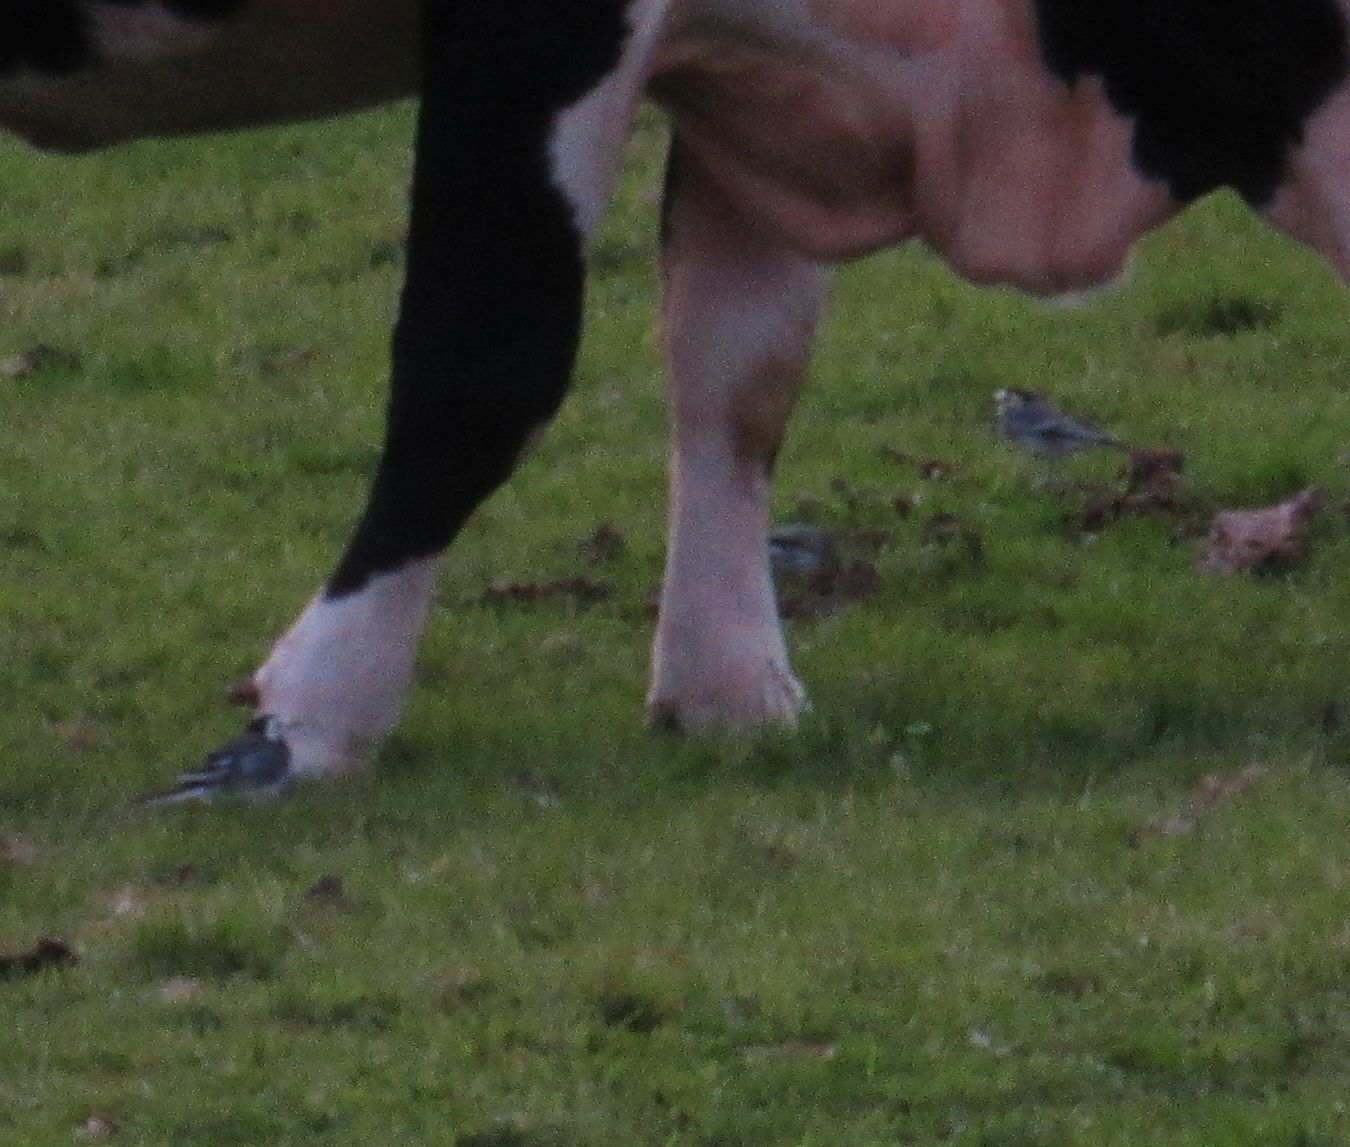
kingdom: Animalia
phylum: Chordata
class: Aves
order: Passeriformes
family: Motacillidae
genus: Motacilla
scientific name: Motacilla alba
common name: White wagtail
